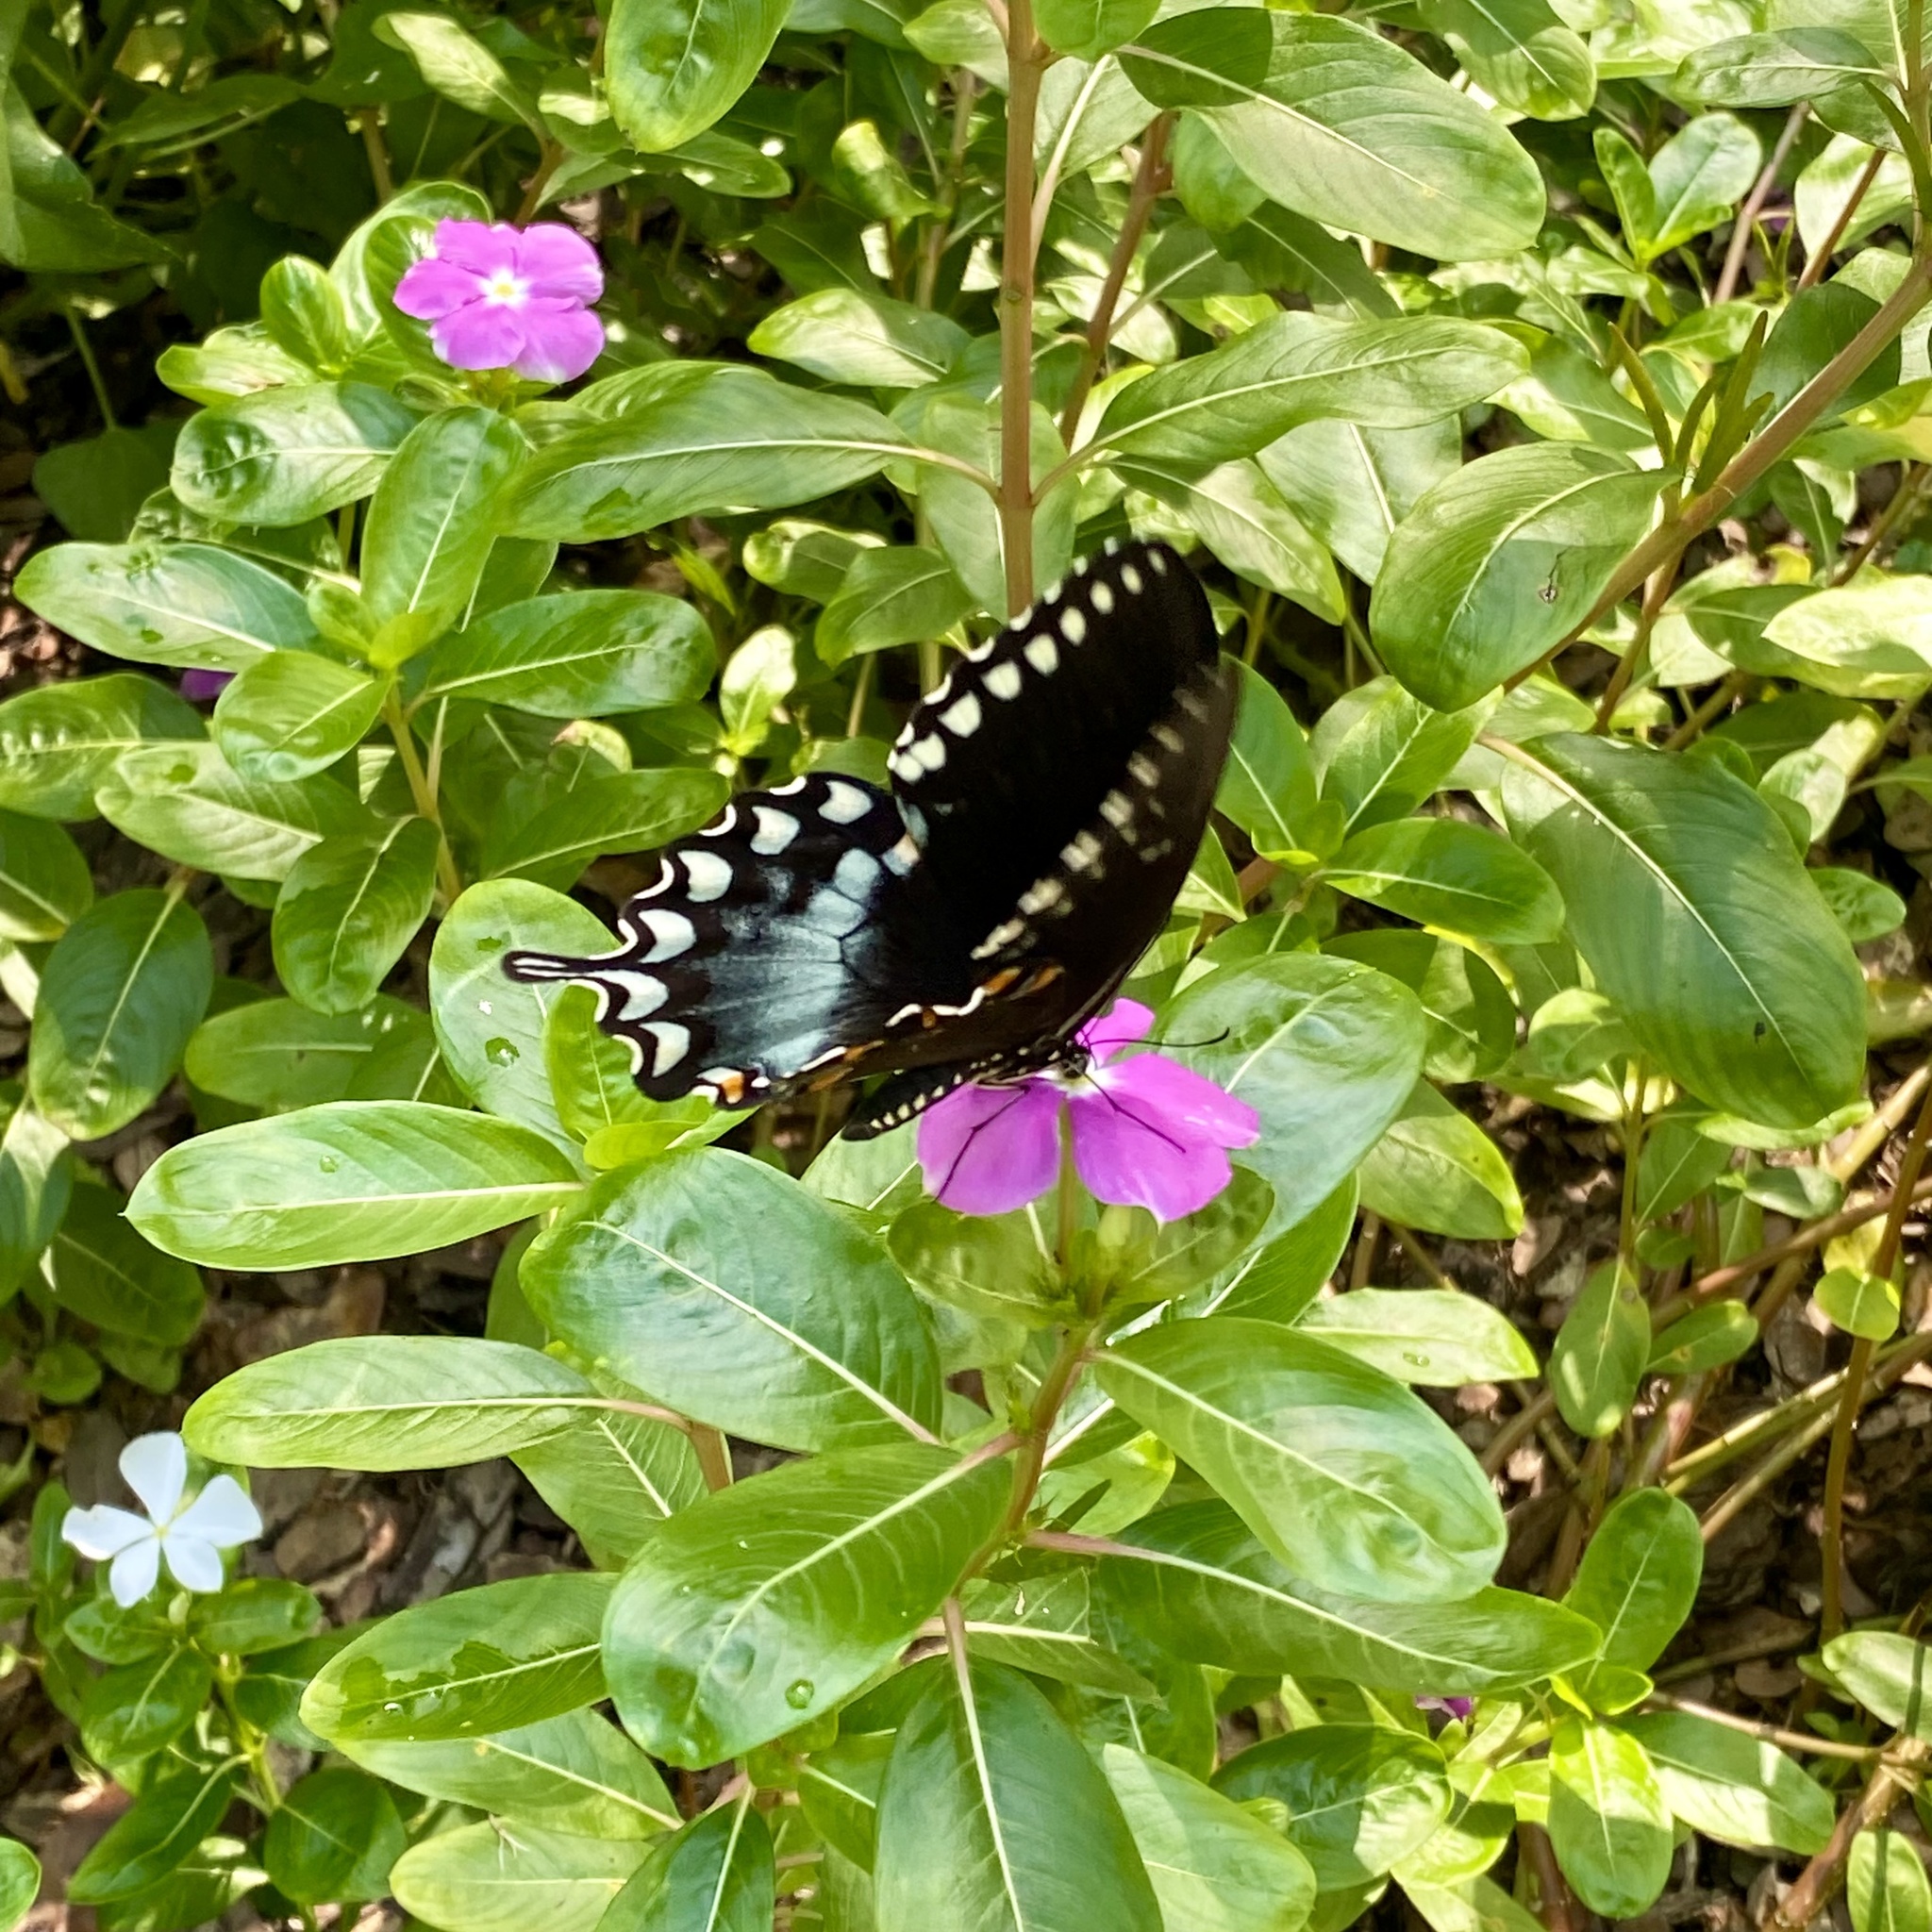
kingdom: Animalia
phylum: Arthropoda
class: Insecta
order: Lepidoptera
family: Papilionidae
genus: Papilio
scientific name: Papilio troilus
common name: Spicebush swallowtail
